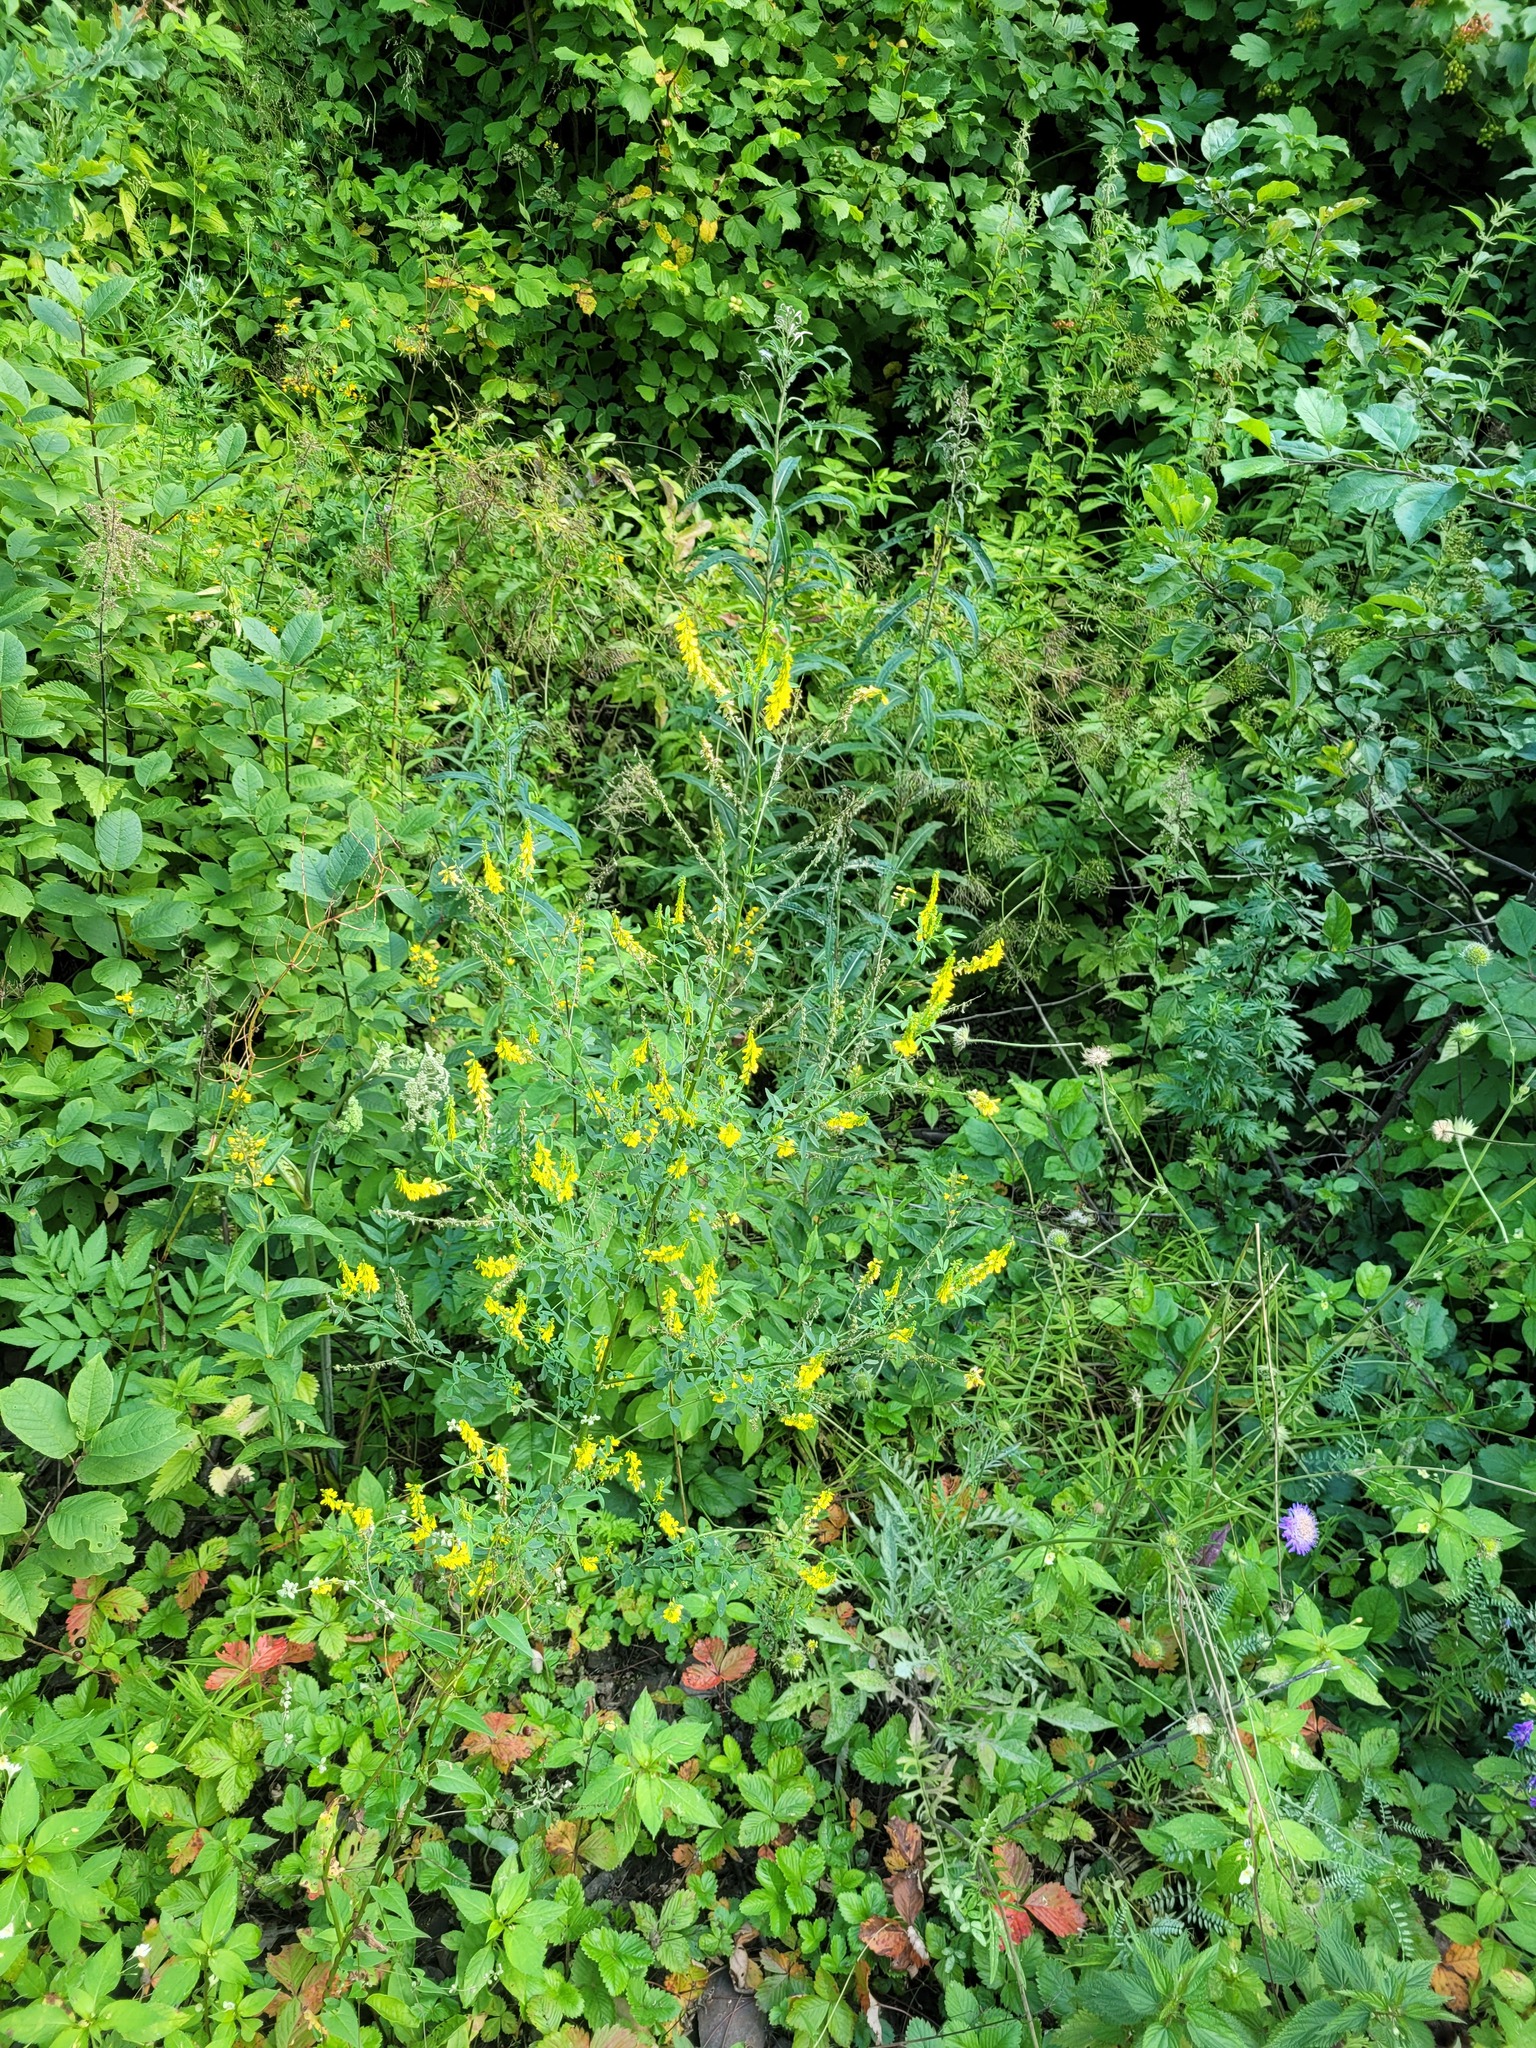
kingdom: Plantae
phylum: Tracheophyta
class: Magnoliopsida
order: Fabales
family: Fabaceae
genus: Melilotus
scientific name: Melilotus officinalis
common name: Sweetclover
